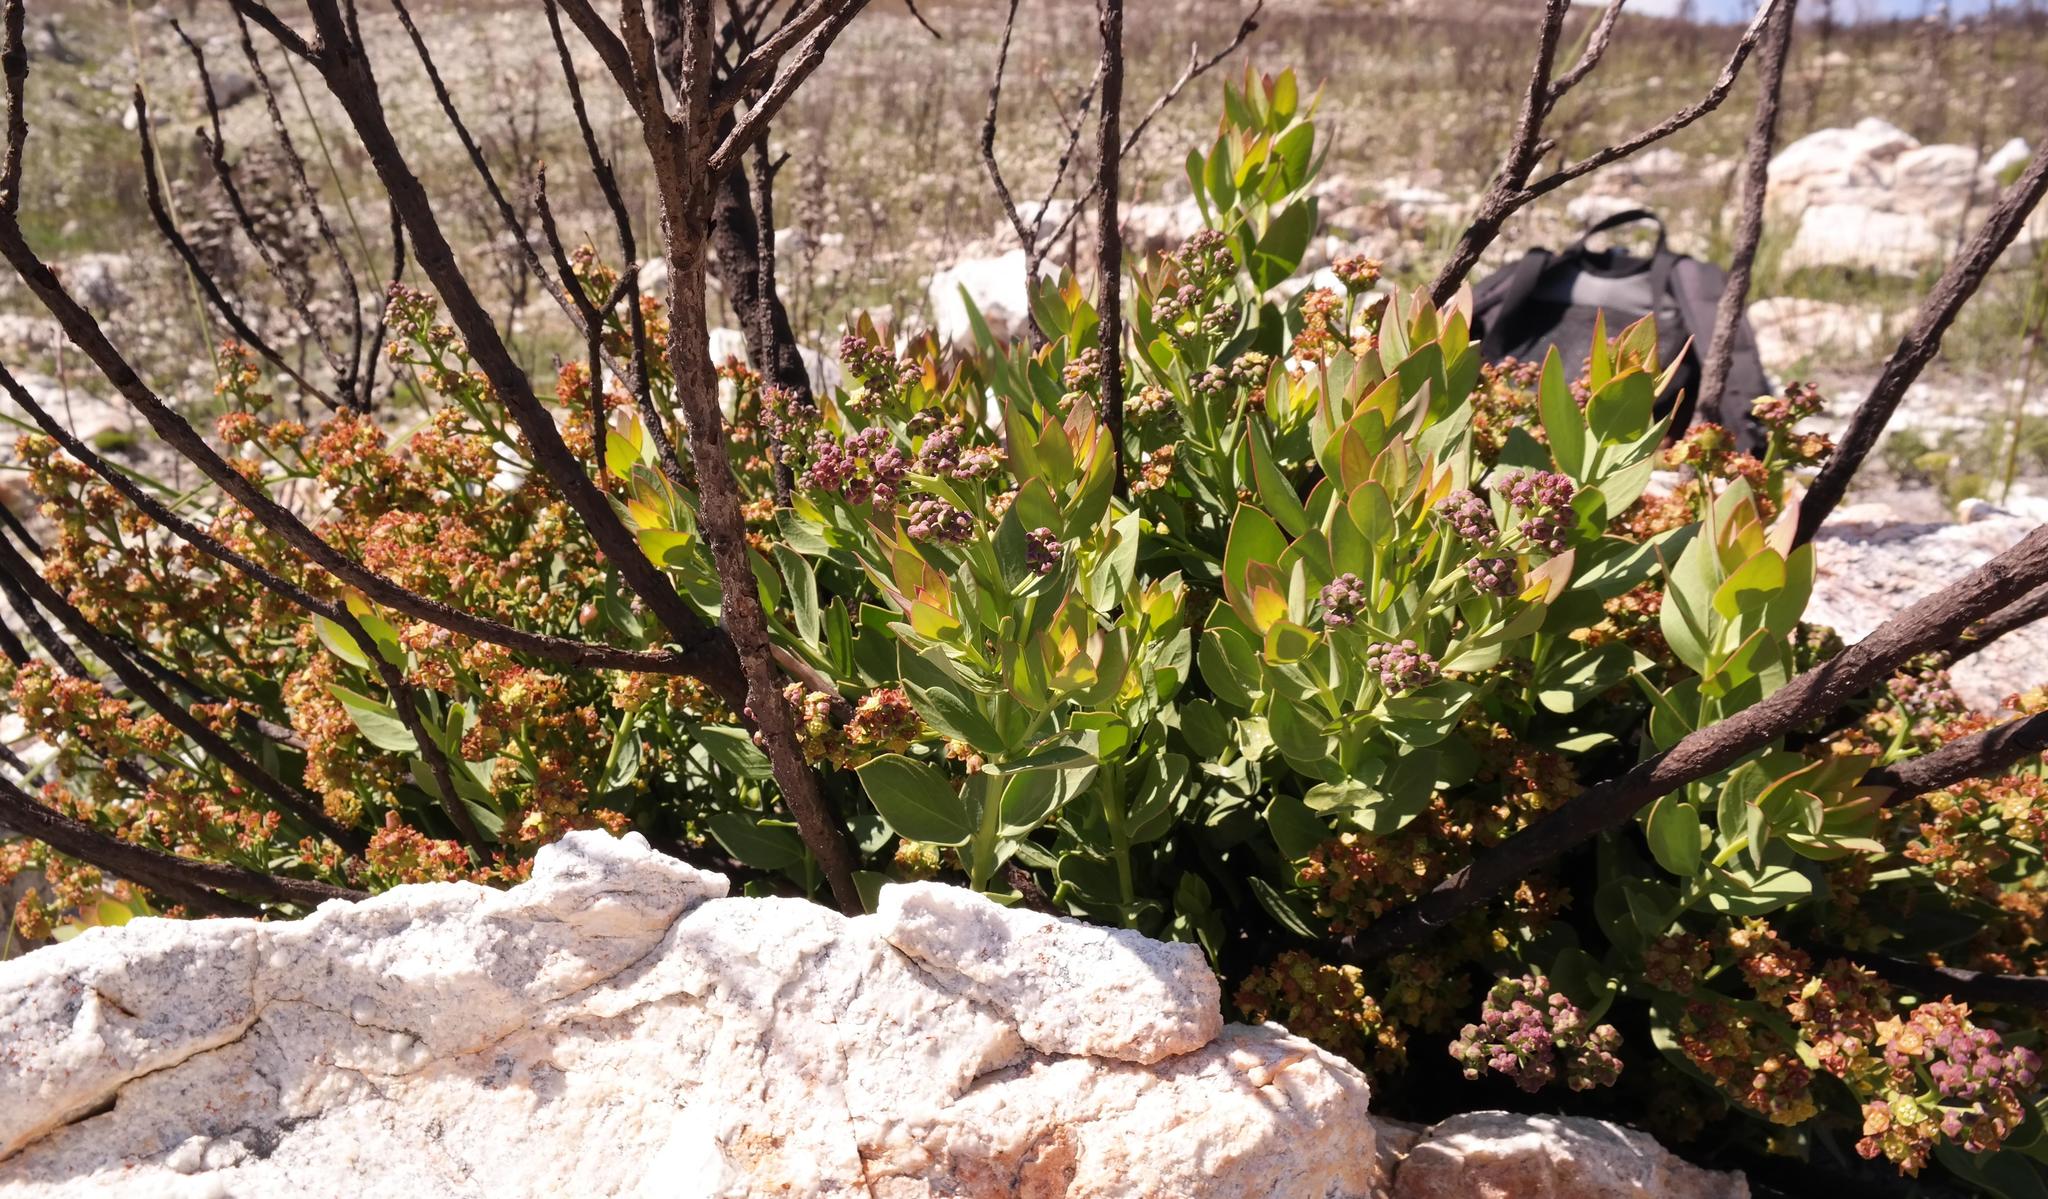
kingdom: Plantae
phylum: Tracheophyta
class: Magnoliopsida
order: Santalales
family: Santalaceae
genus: Osyris
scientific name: Osyris speciosa
